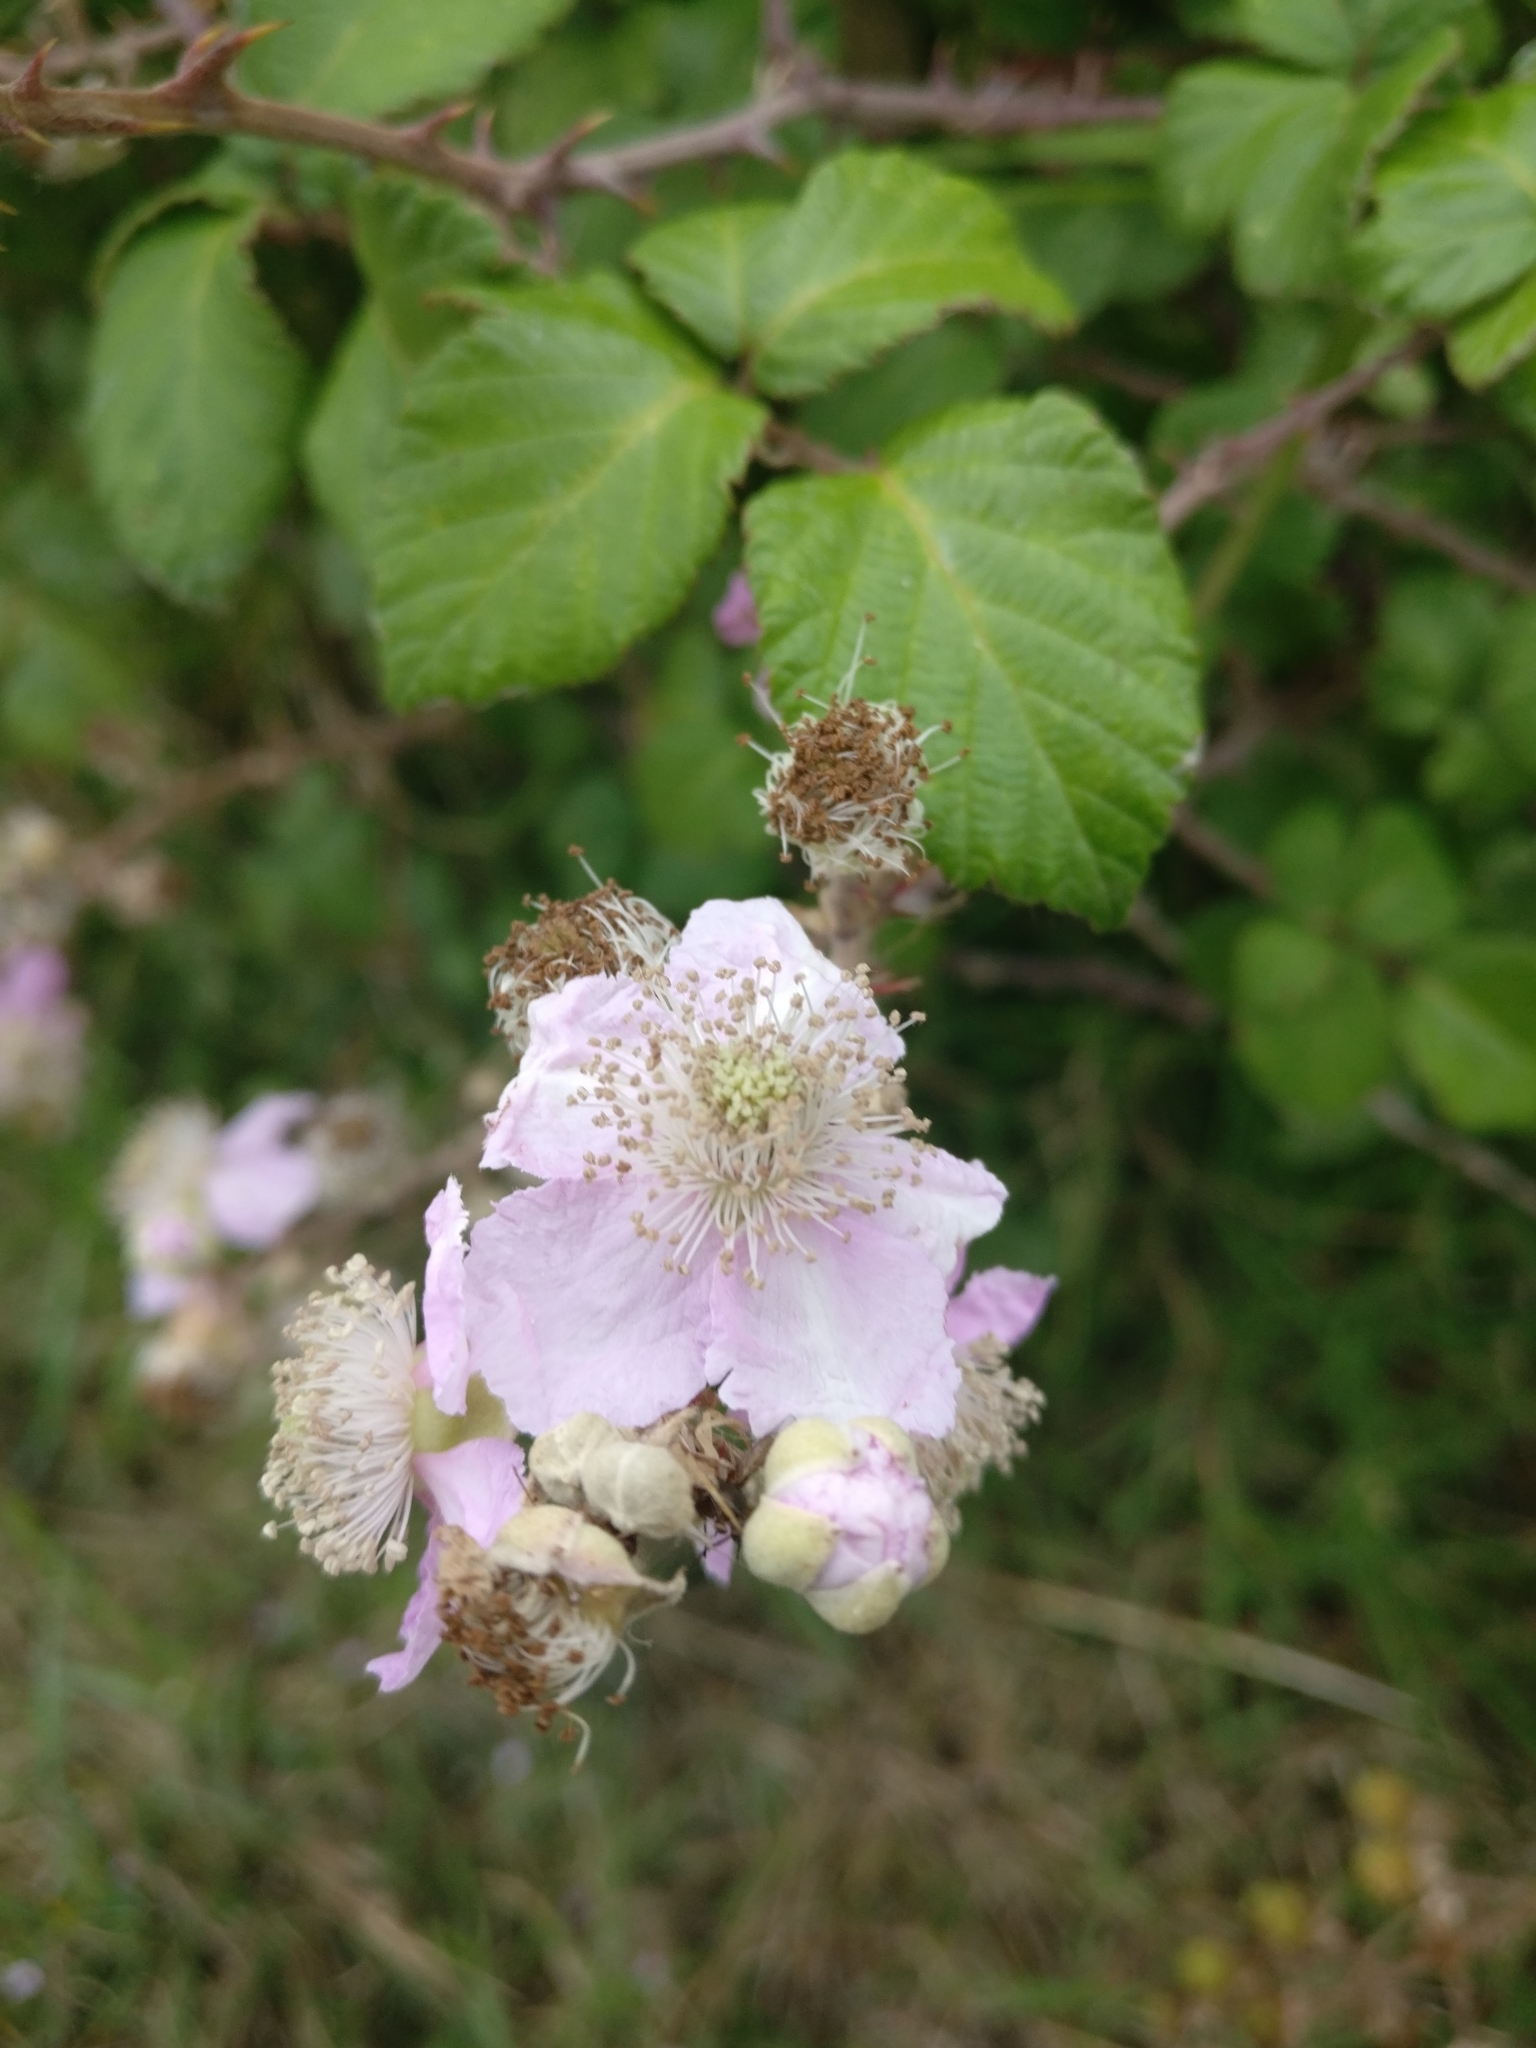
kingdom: Plantae
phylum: Tracheophyta
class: Magnoliopsida
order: Rosales
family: Rosaceae
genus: Rubus
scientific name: Rubus ulmifolius
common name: Elmleaf blackberry
